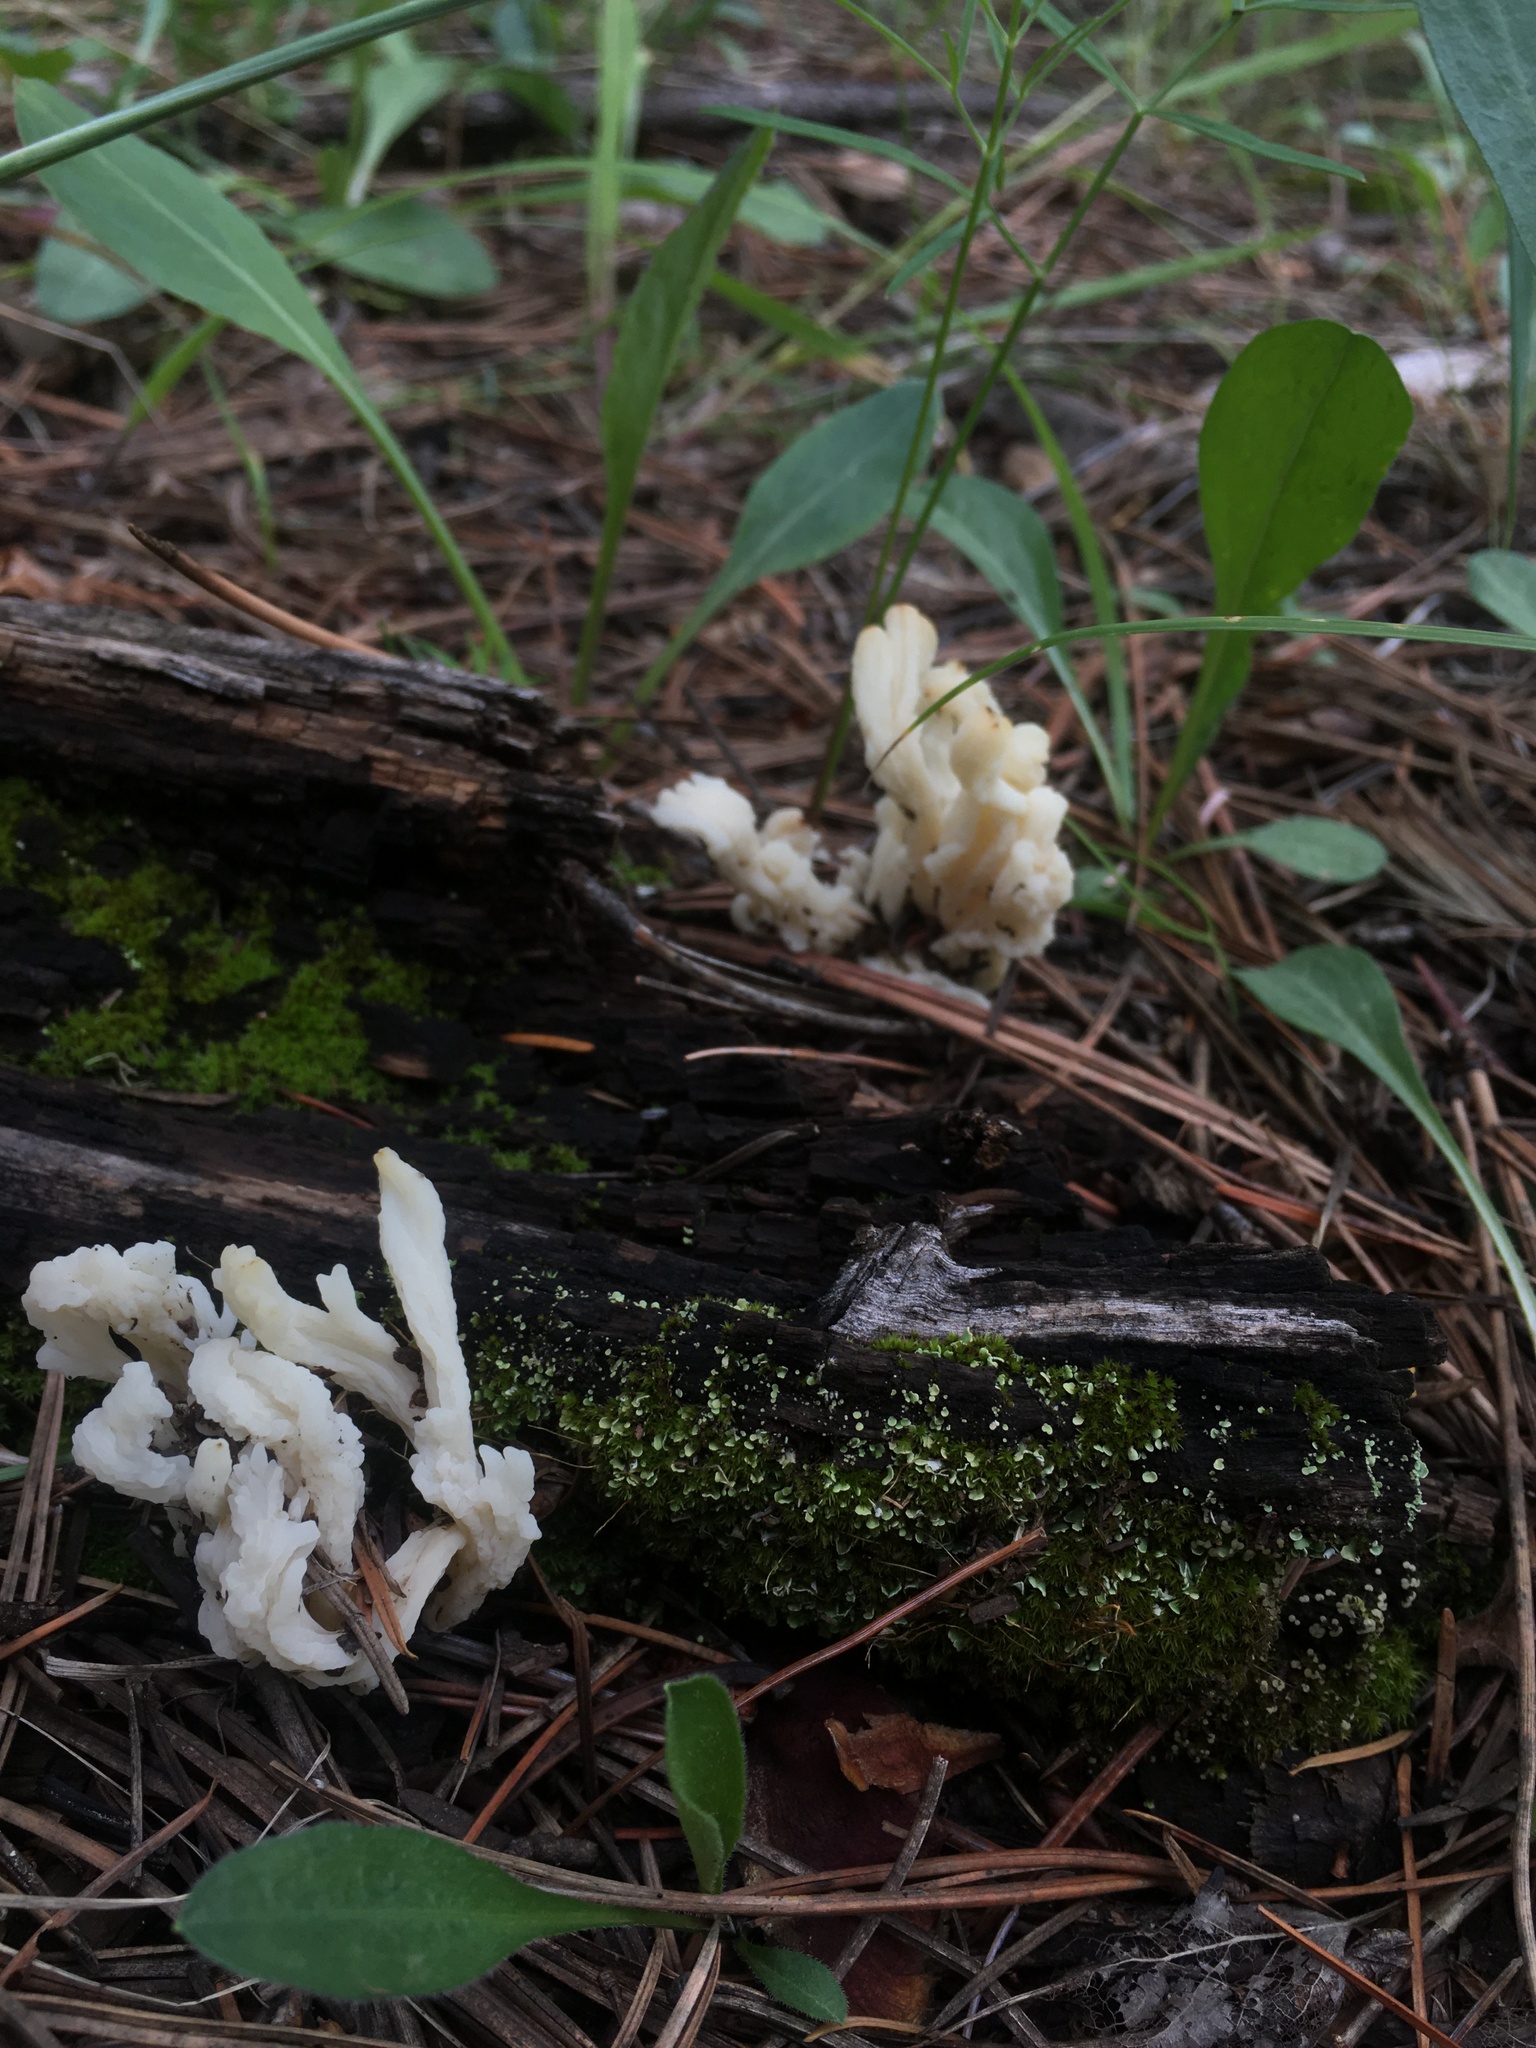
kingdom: Fungi
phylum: Basidiomycota
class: Agaricomycetes
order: Cantharellales
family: Hydnaceae
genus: Clavulina
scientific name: Clavulina rugosa
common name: Wrinkled club
